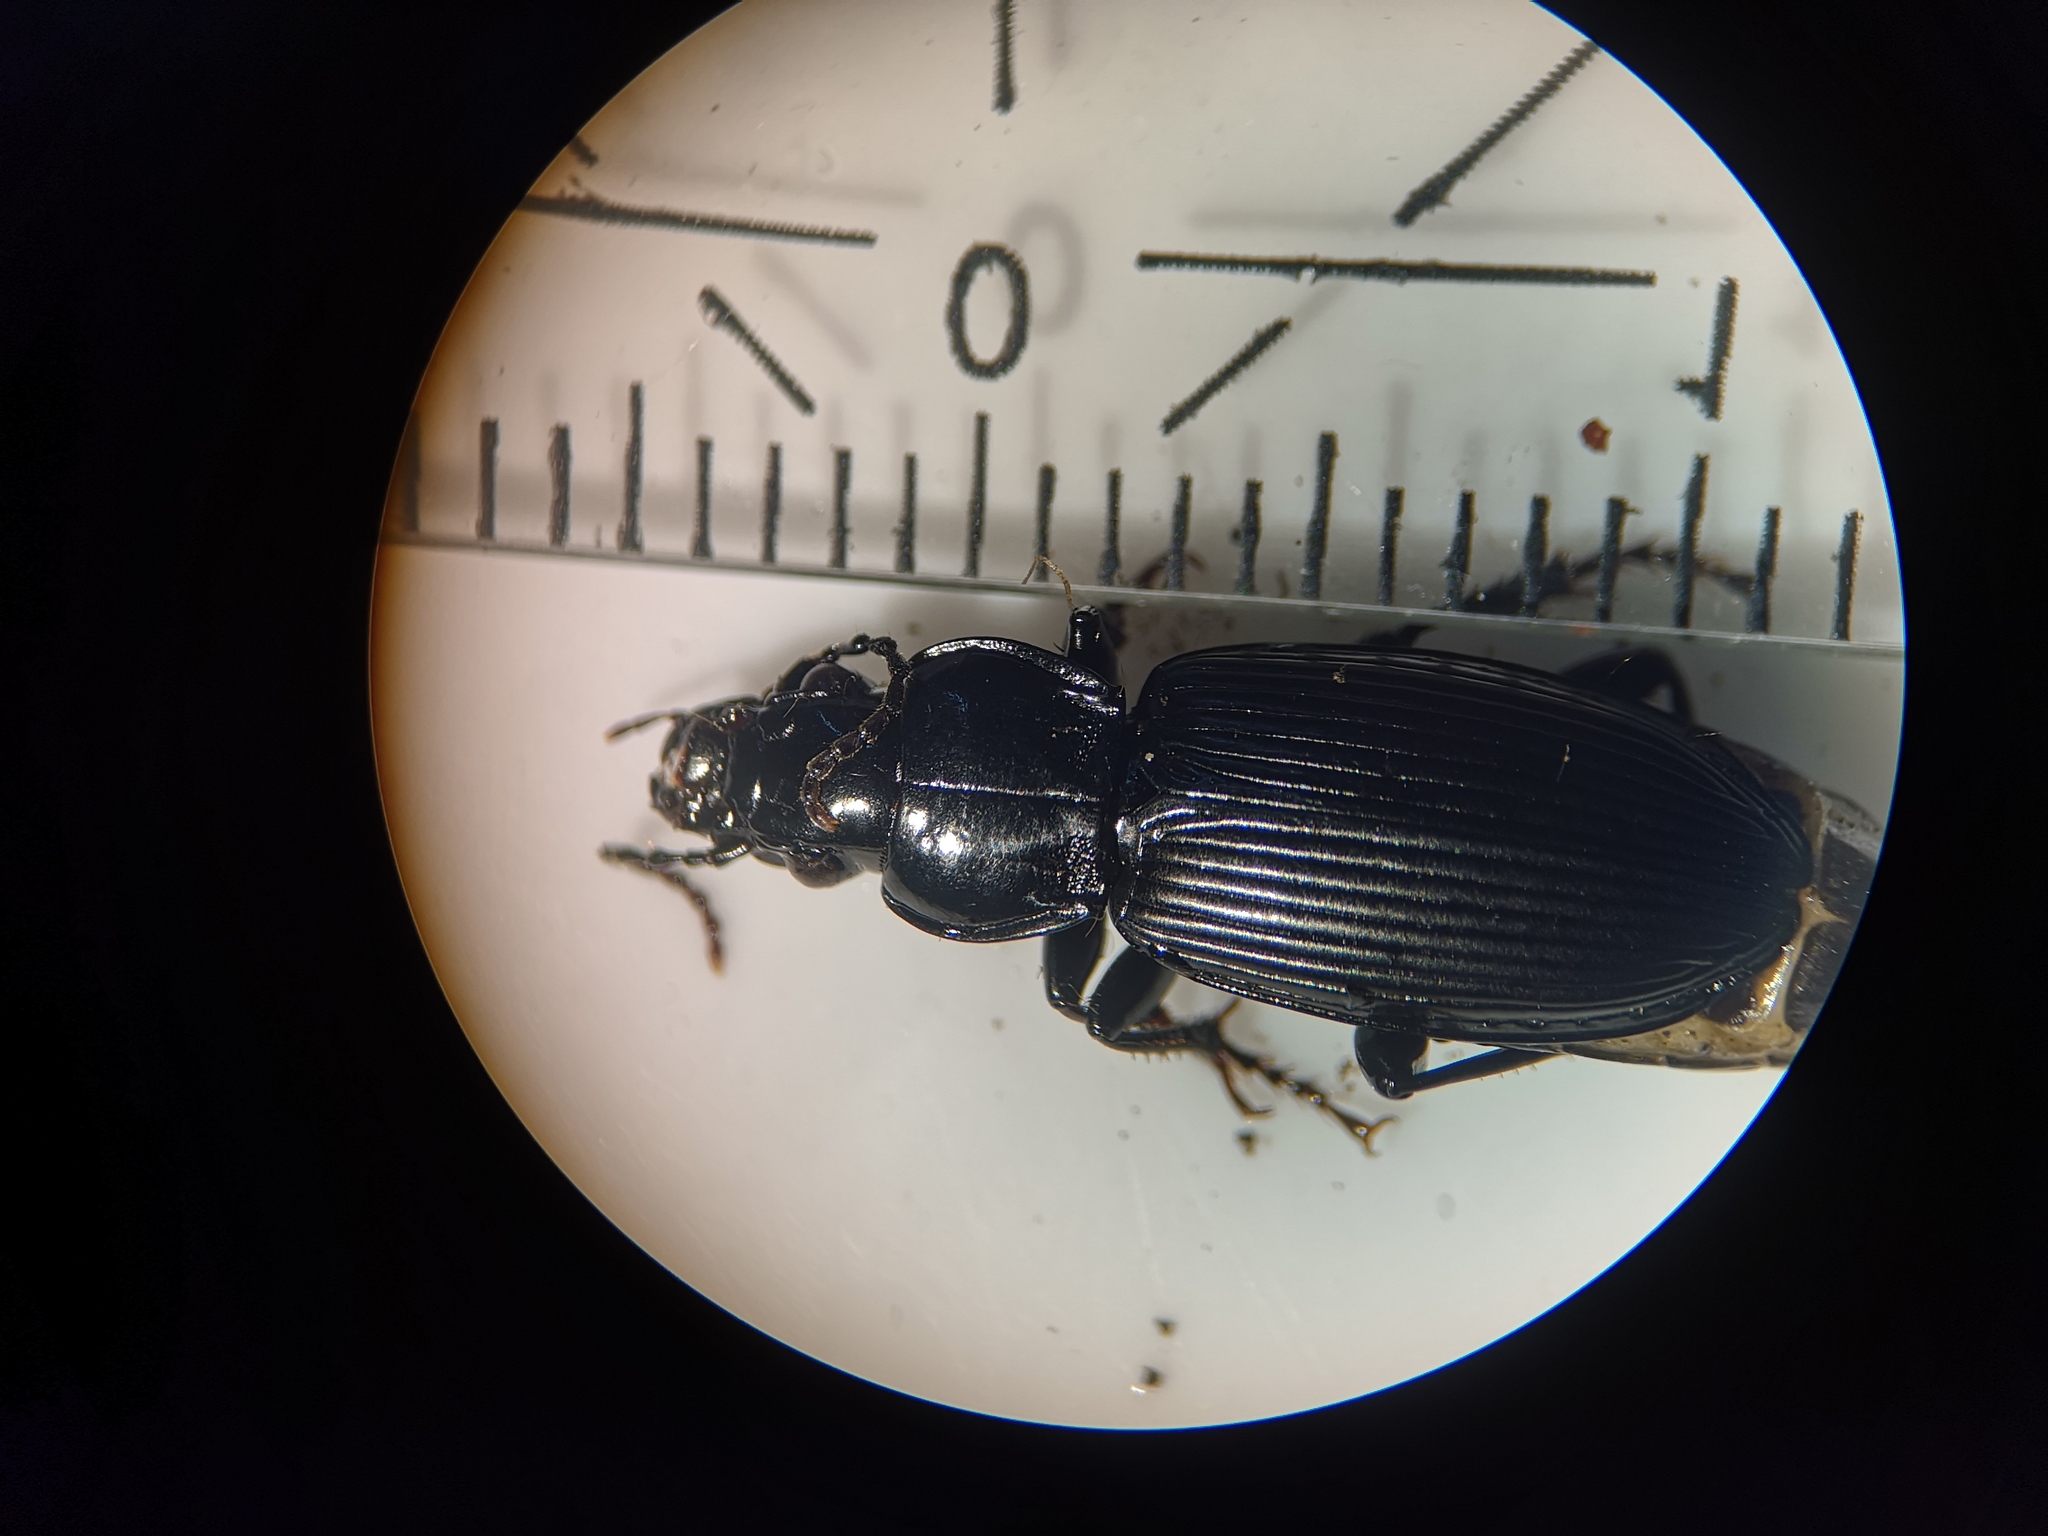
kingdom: Animalia
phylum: Arthropoda
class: Insecta
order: Coleoptera
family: Carabidae
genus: Pterostichus
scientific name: Pterostichus melanarius
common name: European dark harp ground beetle
